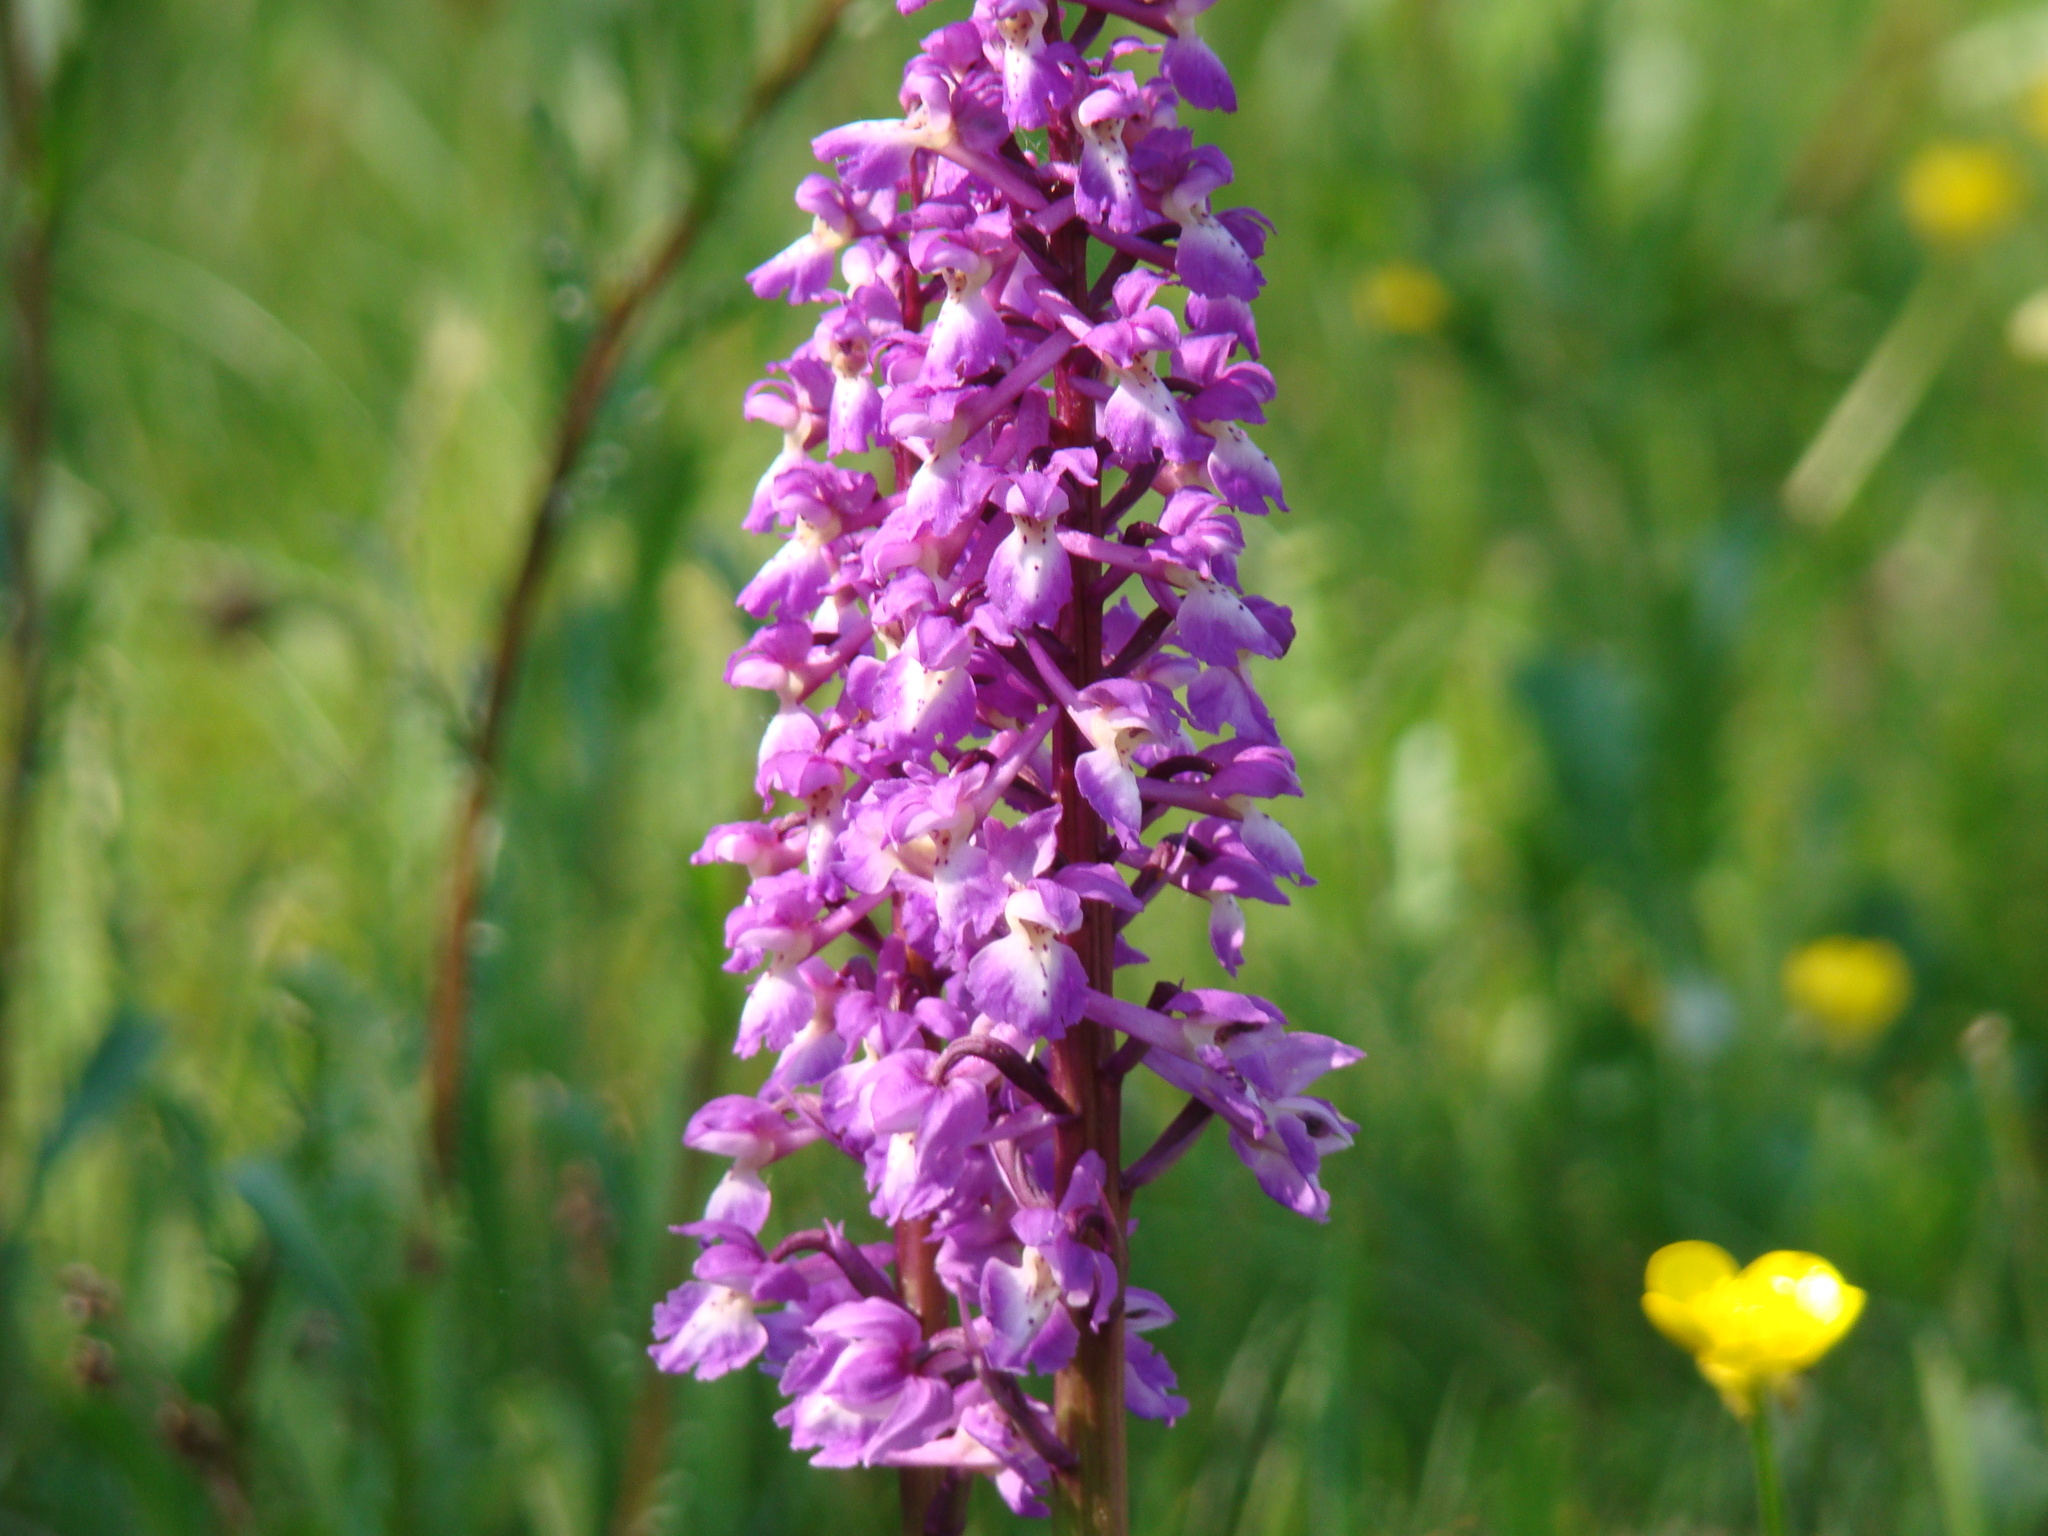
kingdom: Plantae
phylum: Tracheophyta
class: Liliopsida
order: Asparagales
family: Orchidaceae
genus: Orchis
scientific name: Orchis mascula
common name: Early-purple orchid
